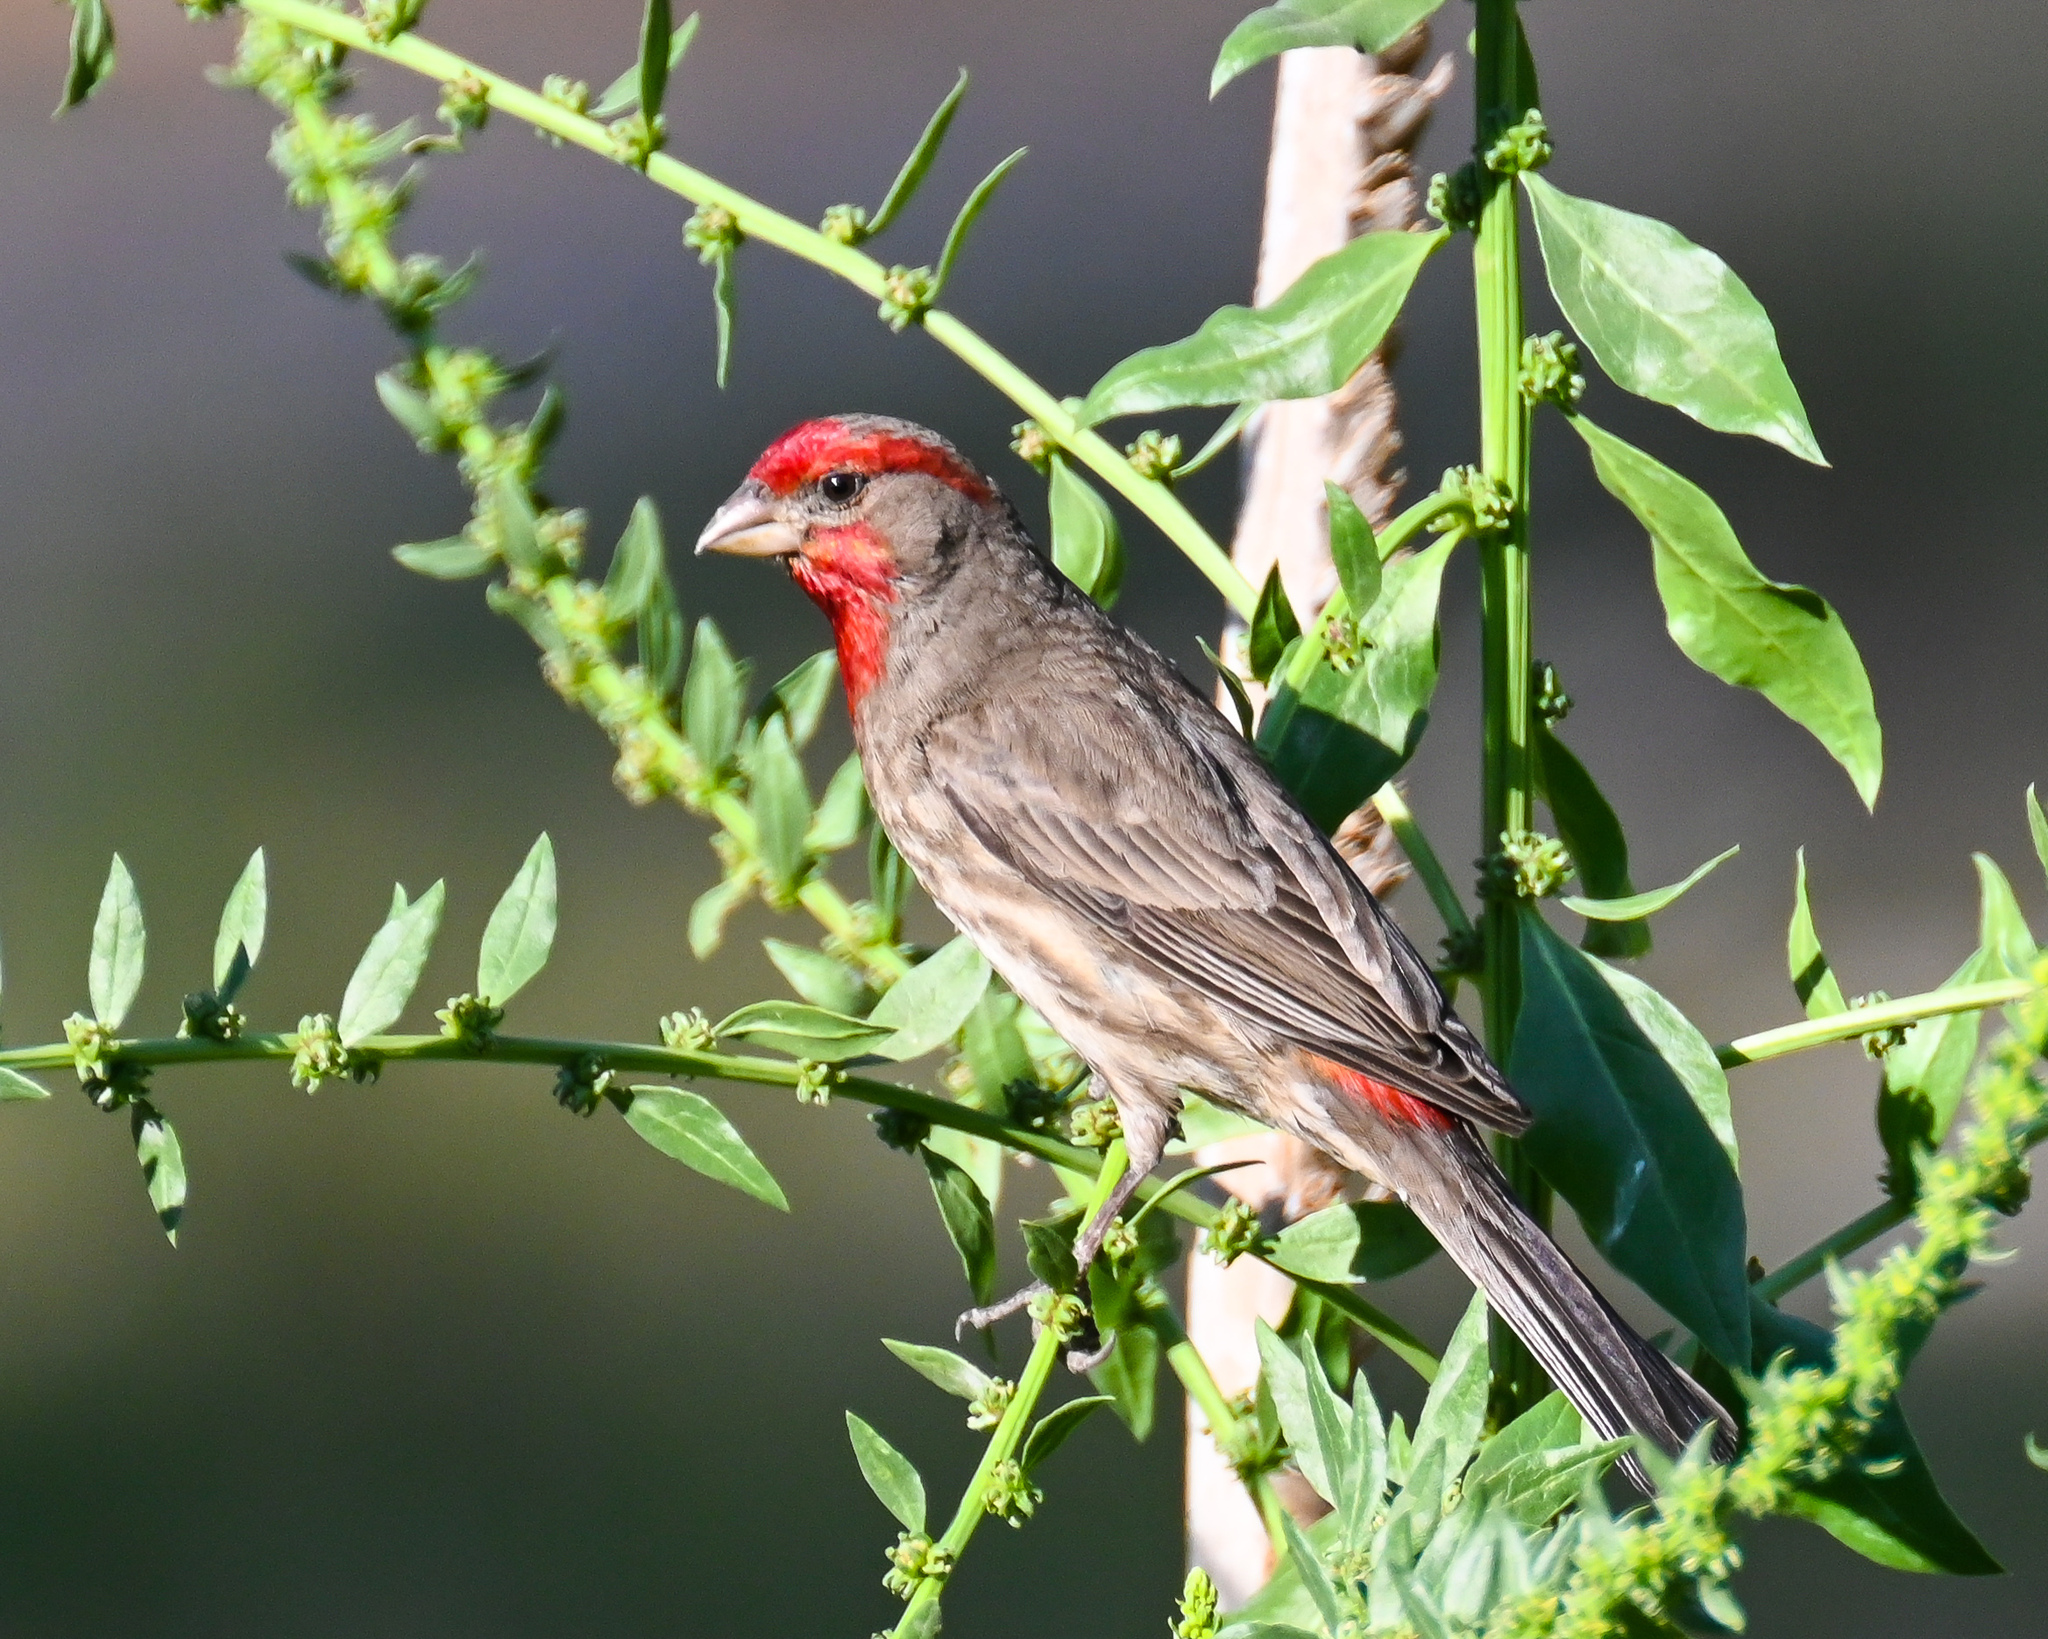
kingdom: Animalia
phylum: Chordata
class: Aves
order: Passeriformes
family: Fringillidae
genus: Haemorhous
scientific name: Haemorhous mexicanus
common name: House finch
